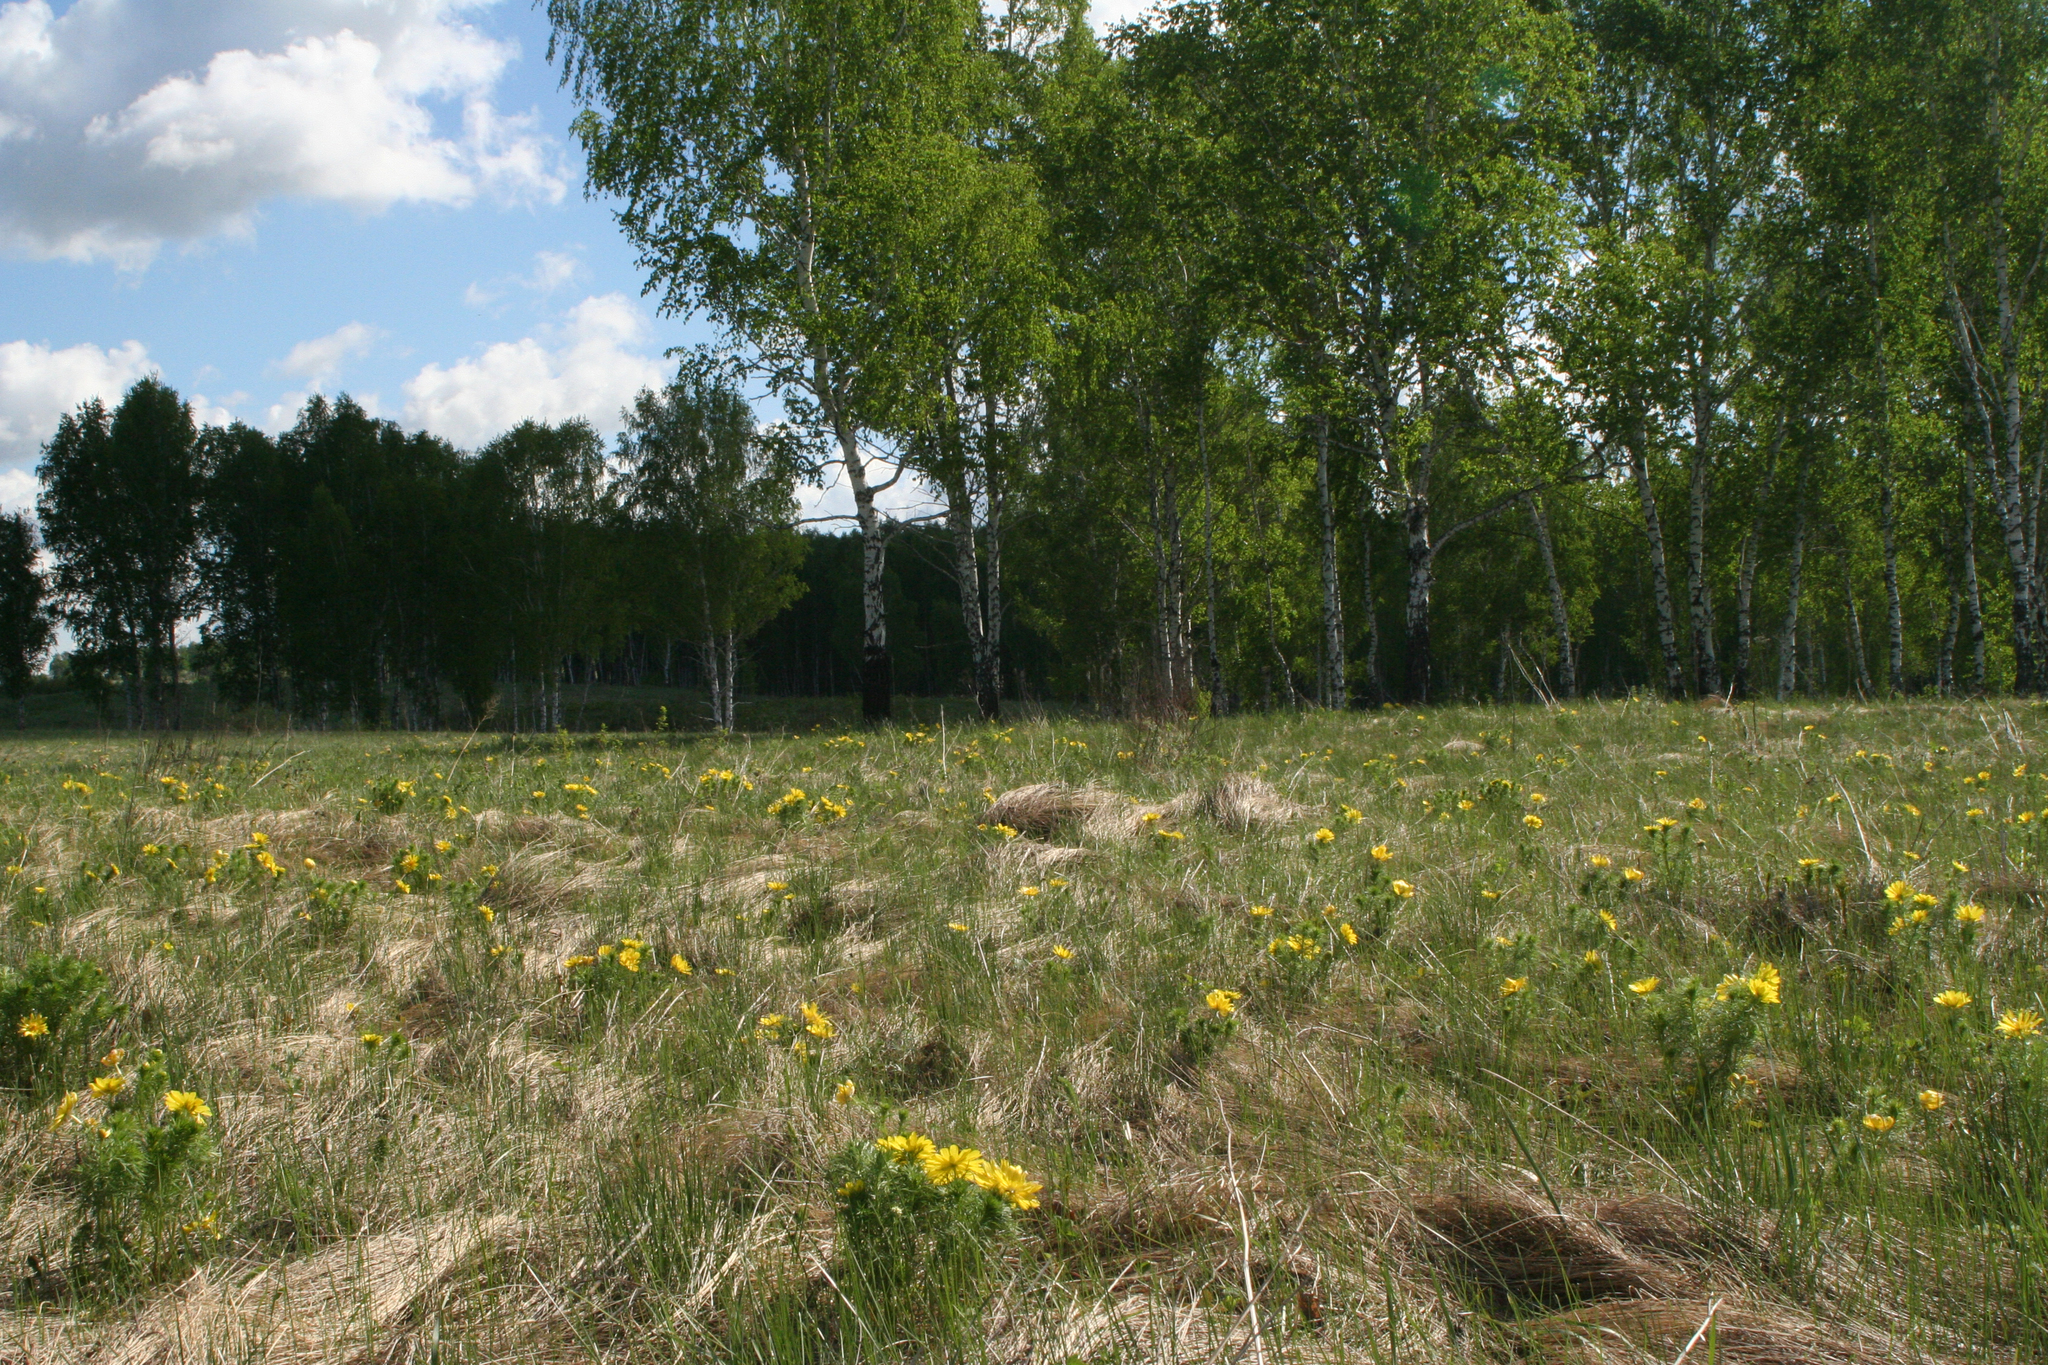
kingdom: Plantae
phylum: Tracheophyta
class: Magnoliopsida
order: Fagales
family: Betulaceae
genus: Betula
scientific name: Betula pendula
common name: Silver birch
